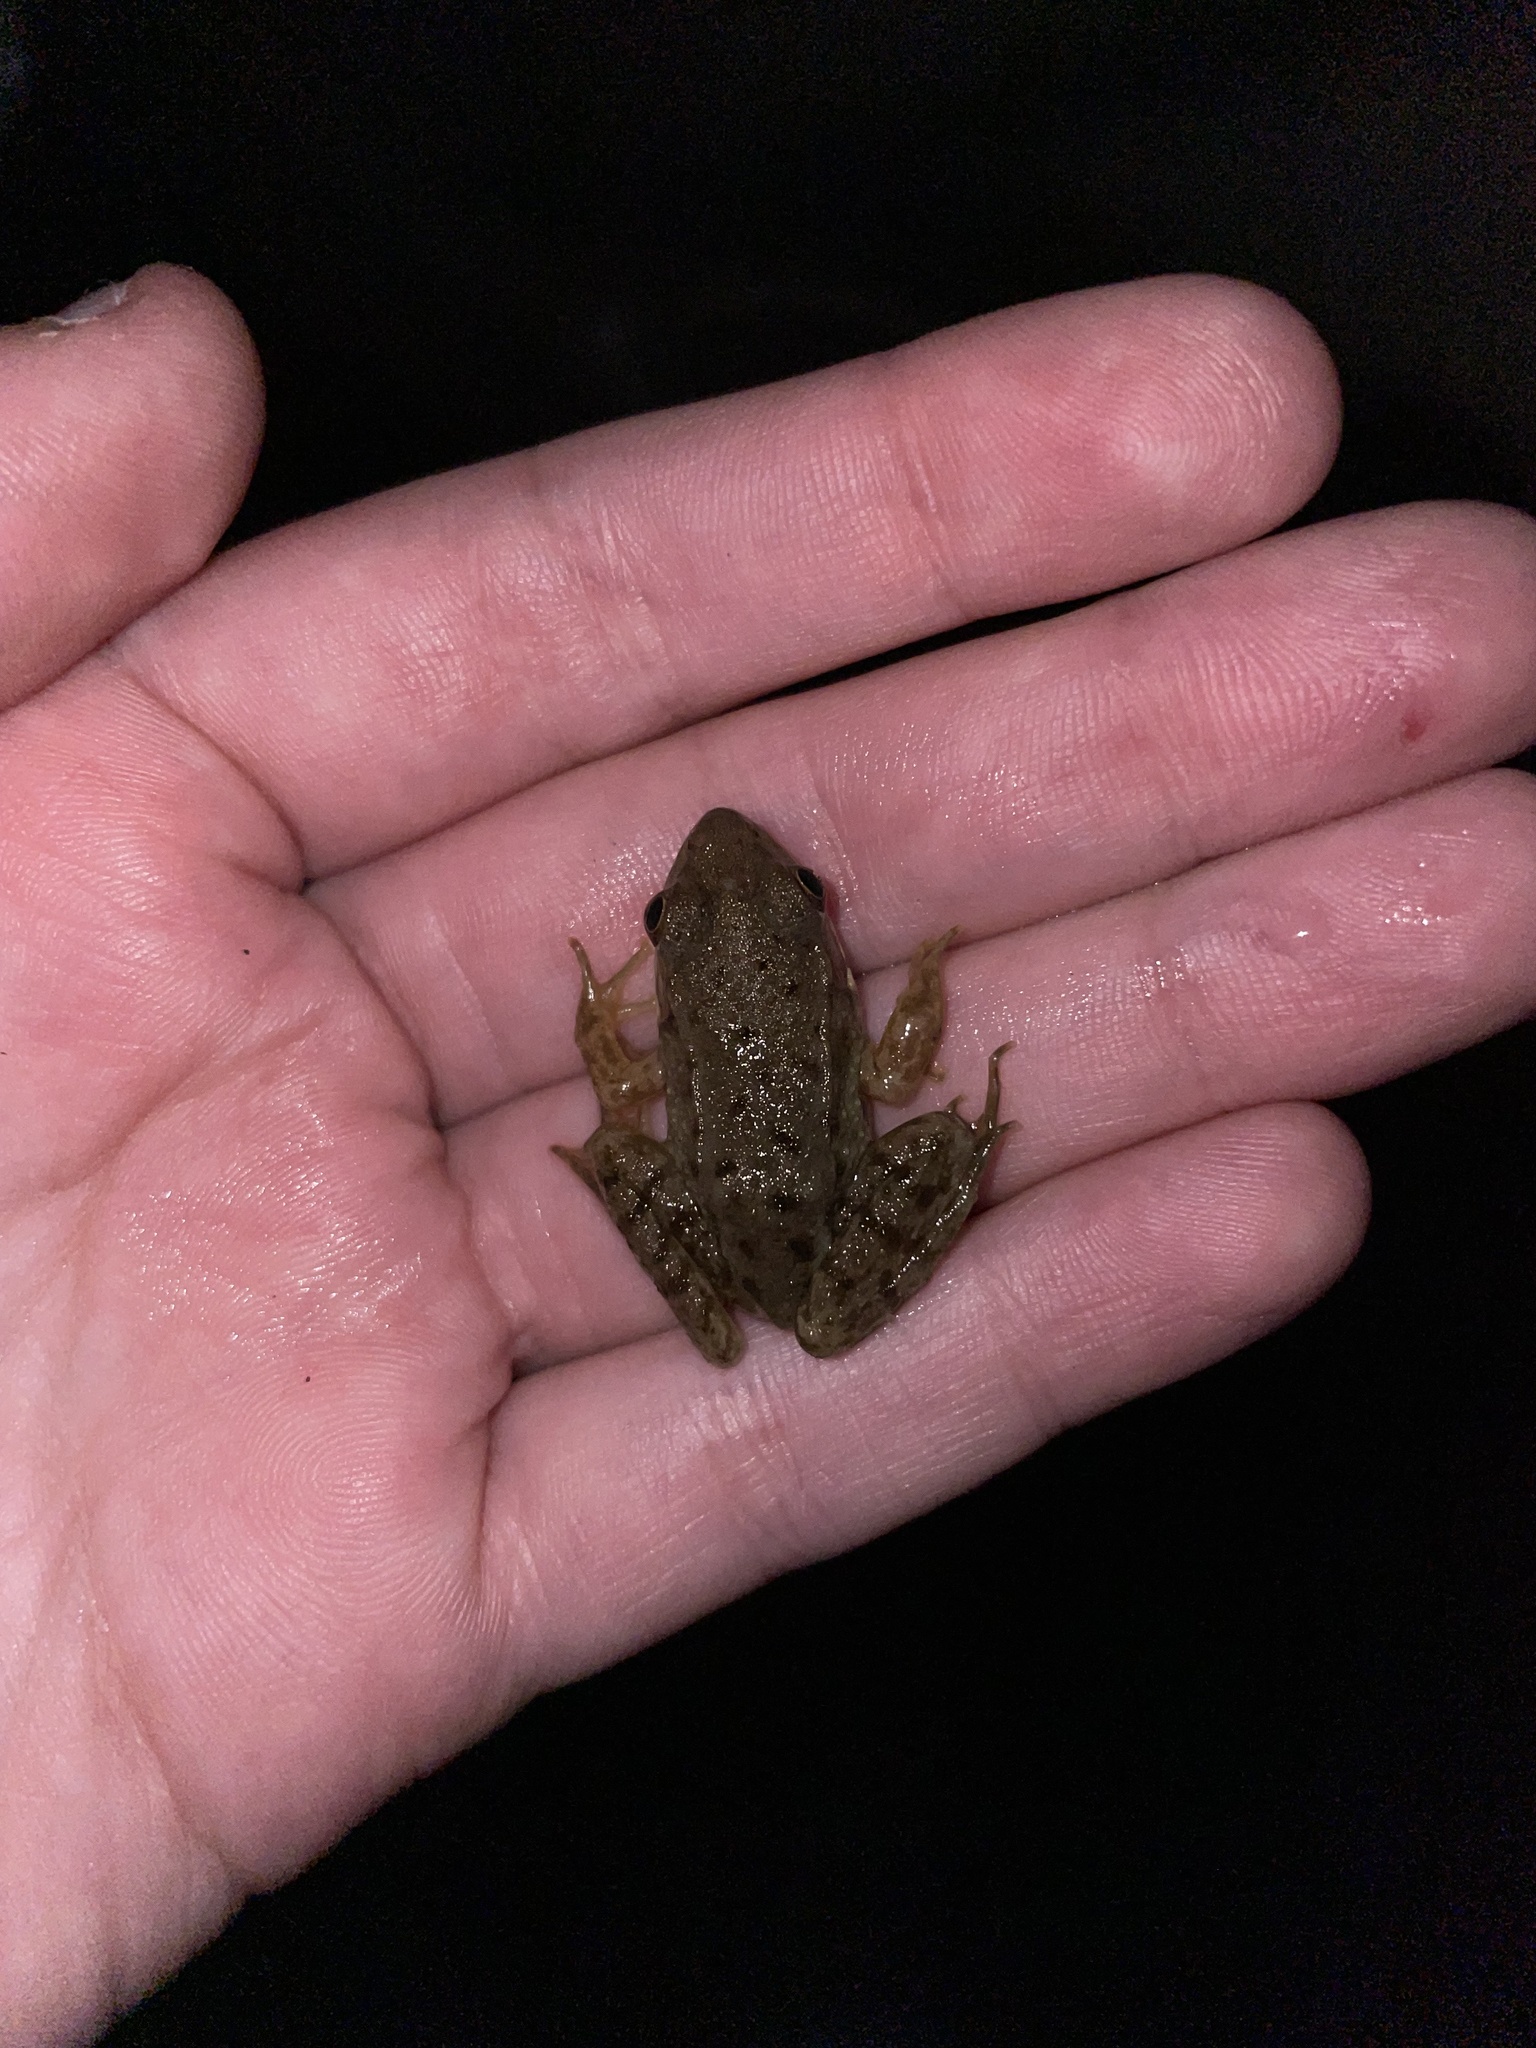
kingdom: Animalia
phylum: Chordata
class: Amphibia
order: Anura
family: Ranidae
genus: Lithobates
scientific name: Lithobates clamitans
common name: Green frog
